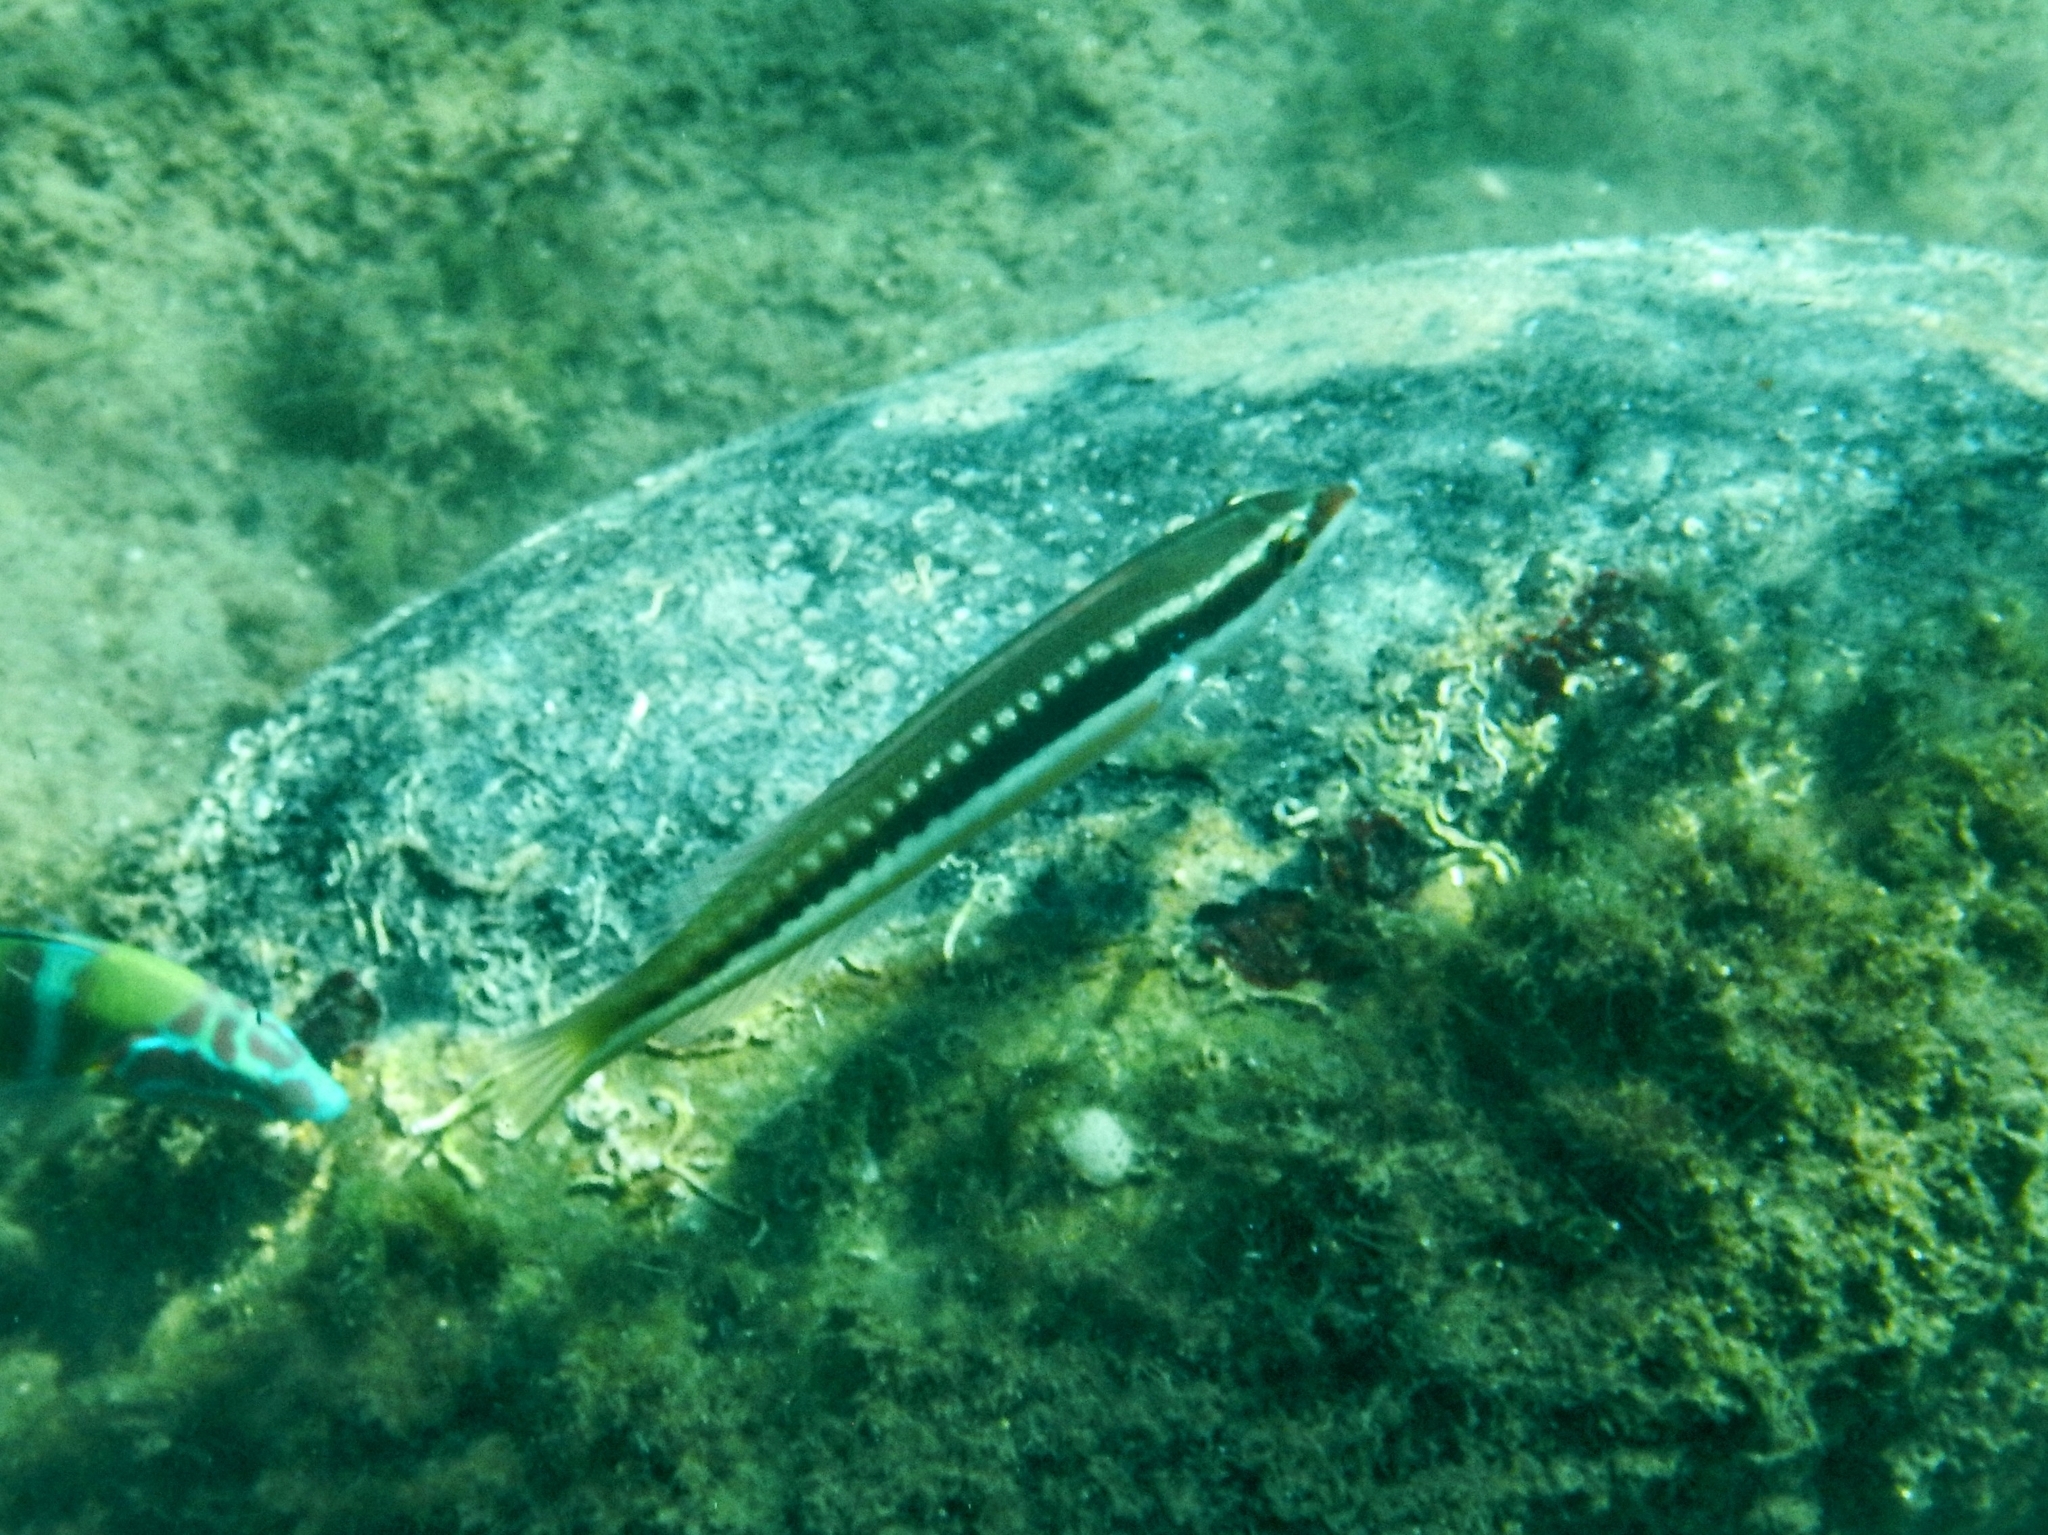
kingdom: Animalia
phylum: Chordata
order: Perciformes
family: Labridae
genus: Coris
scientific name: Coris julis
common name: Rainbow wrasse
